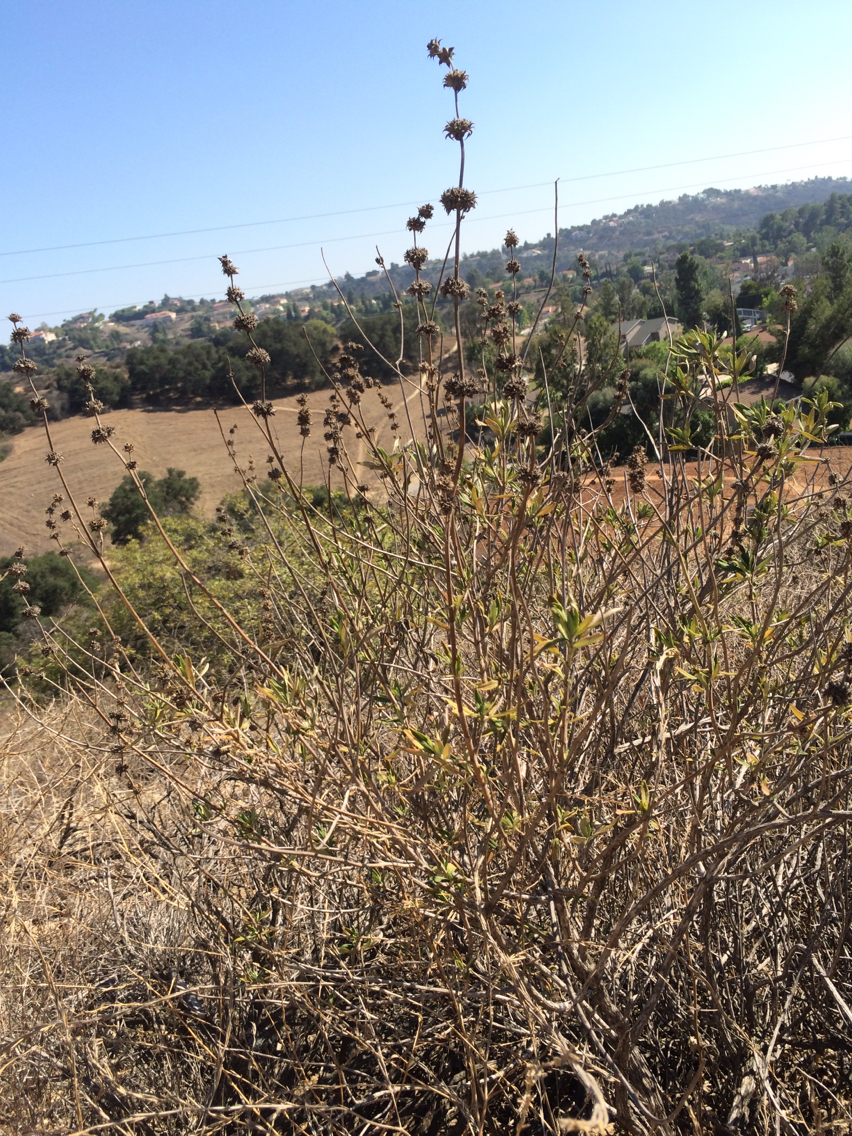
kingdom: Plantae
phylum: Tracheophyta
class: Magnoliopsida
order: Lamiales
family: Lamiaceae
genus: Salvia
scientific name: Salvia mellifera
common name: Black sage
